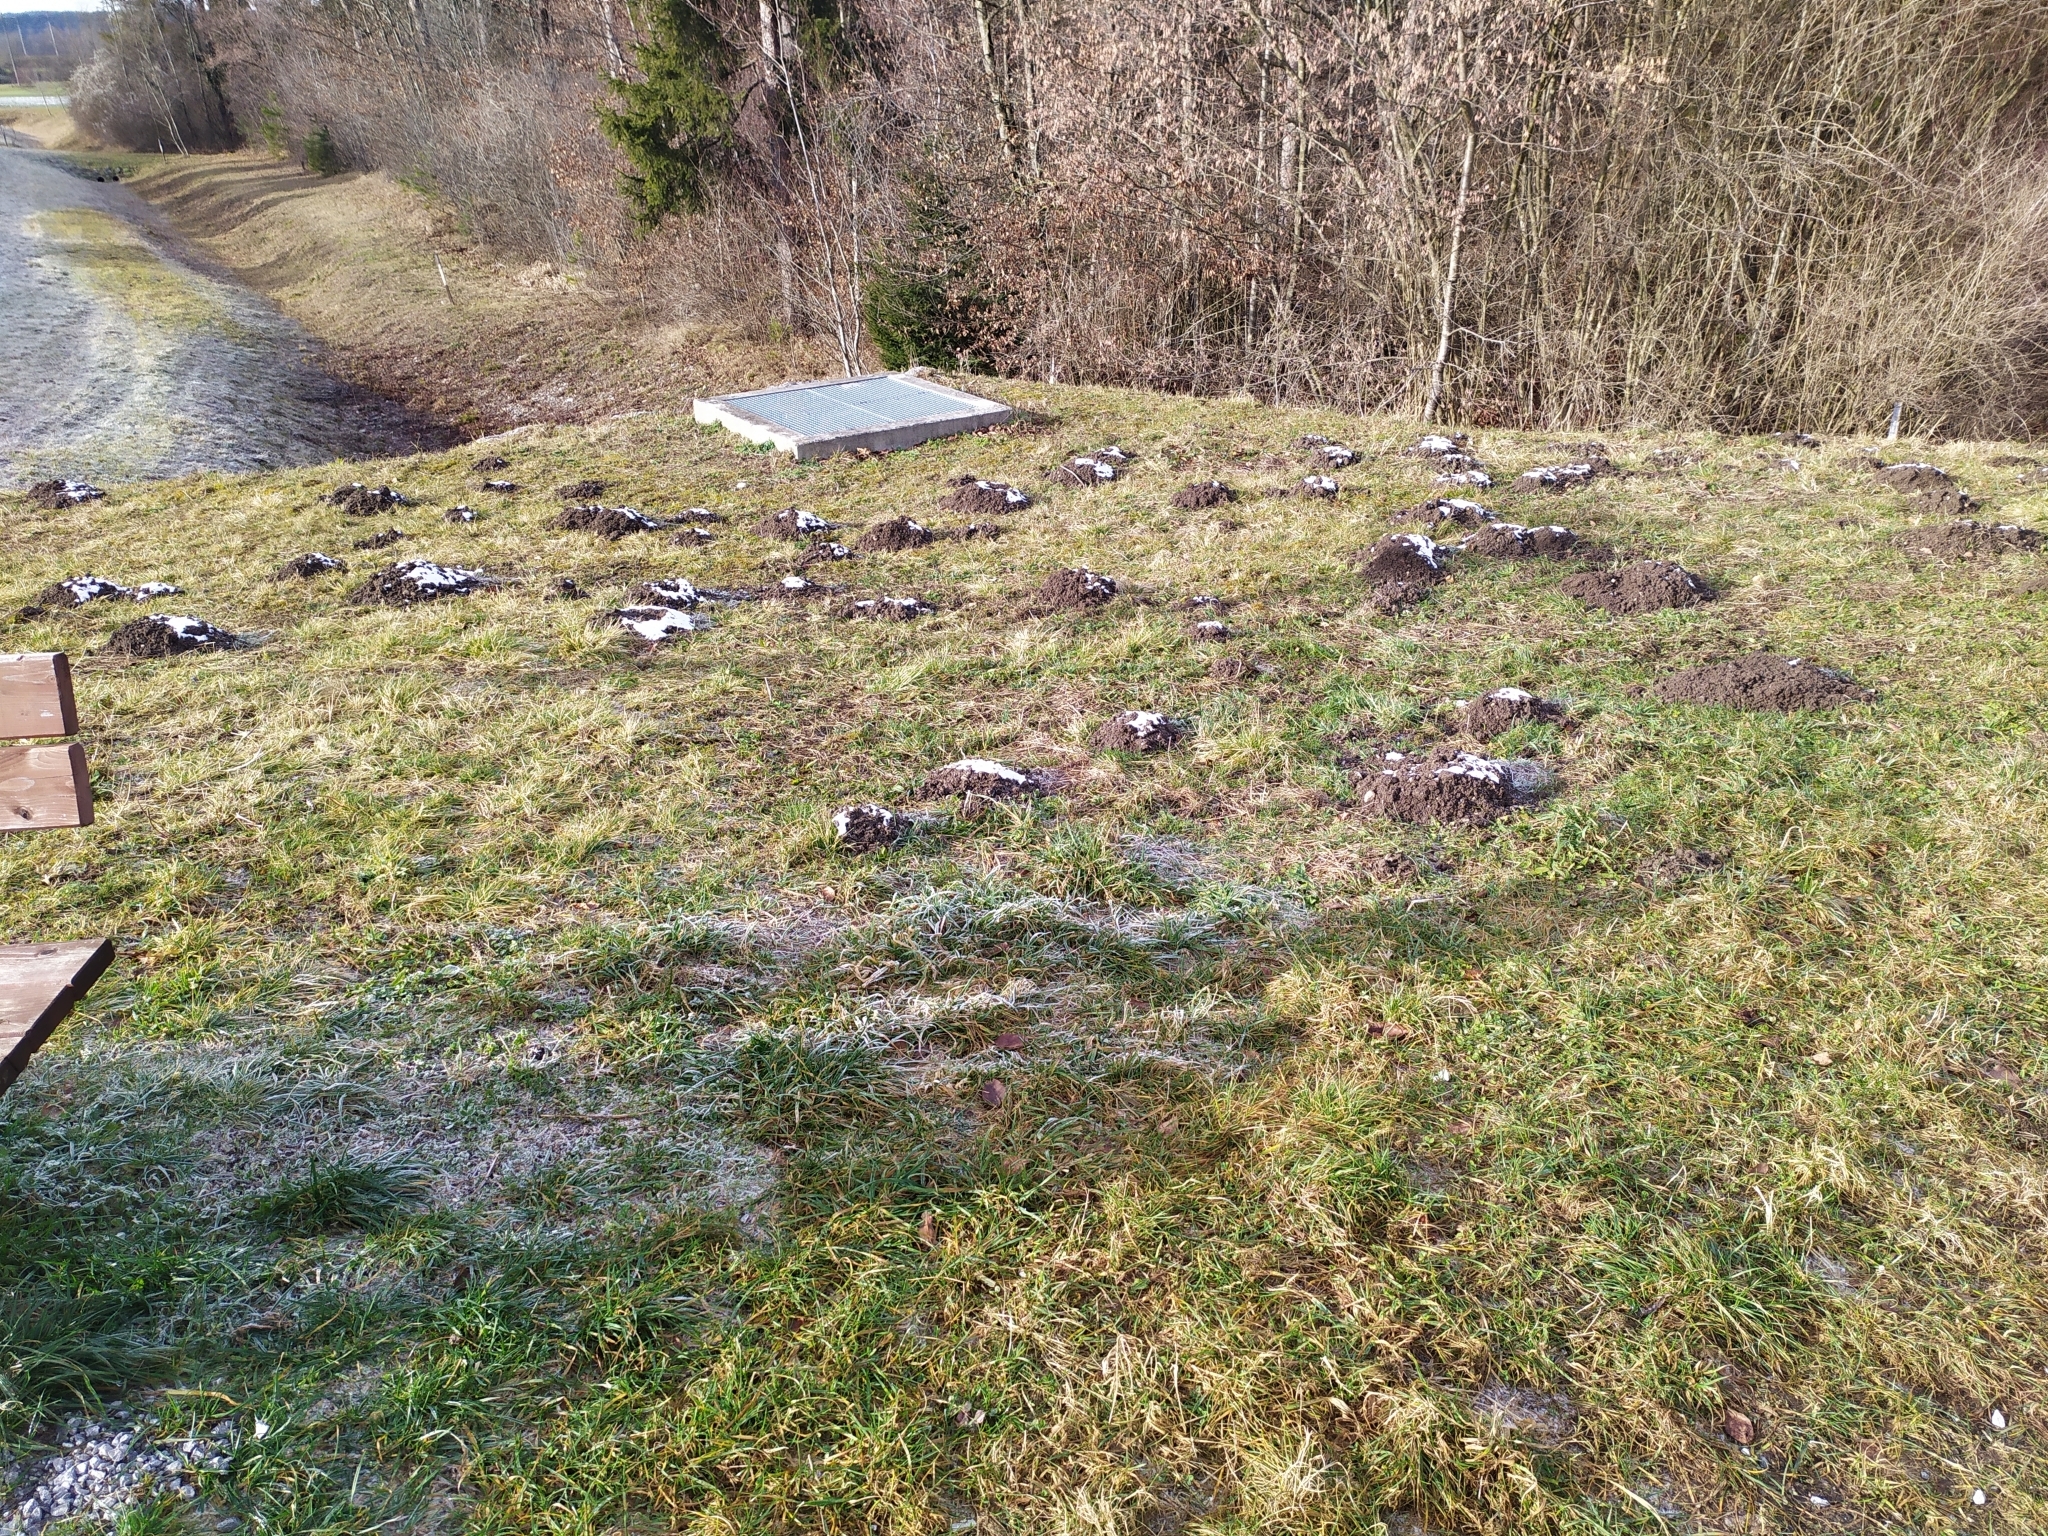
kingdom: Animalia
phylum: Chordata
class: Mammalia
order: Soricomorpha
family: Talpidae
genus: Talpa
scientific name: Talpa europaea
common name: European mole
